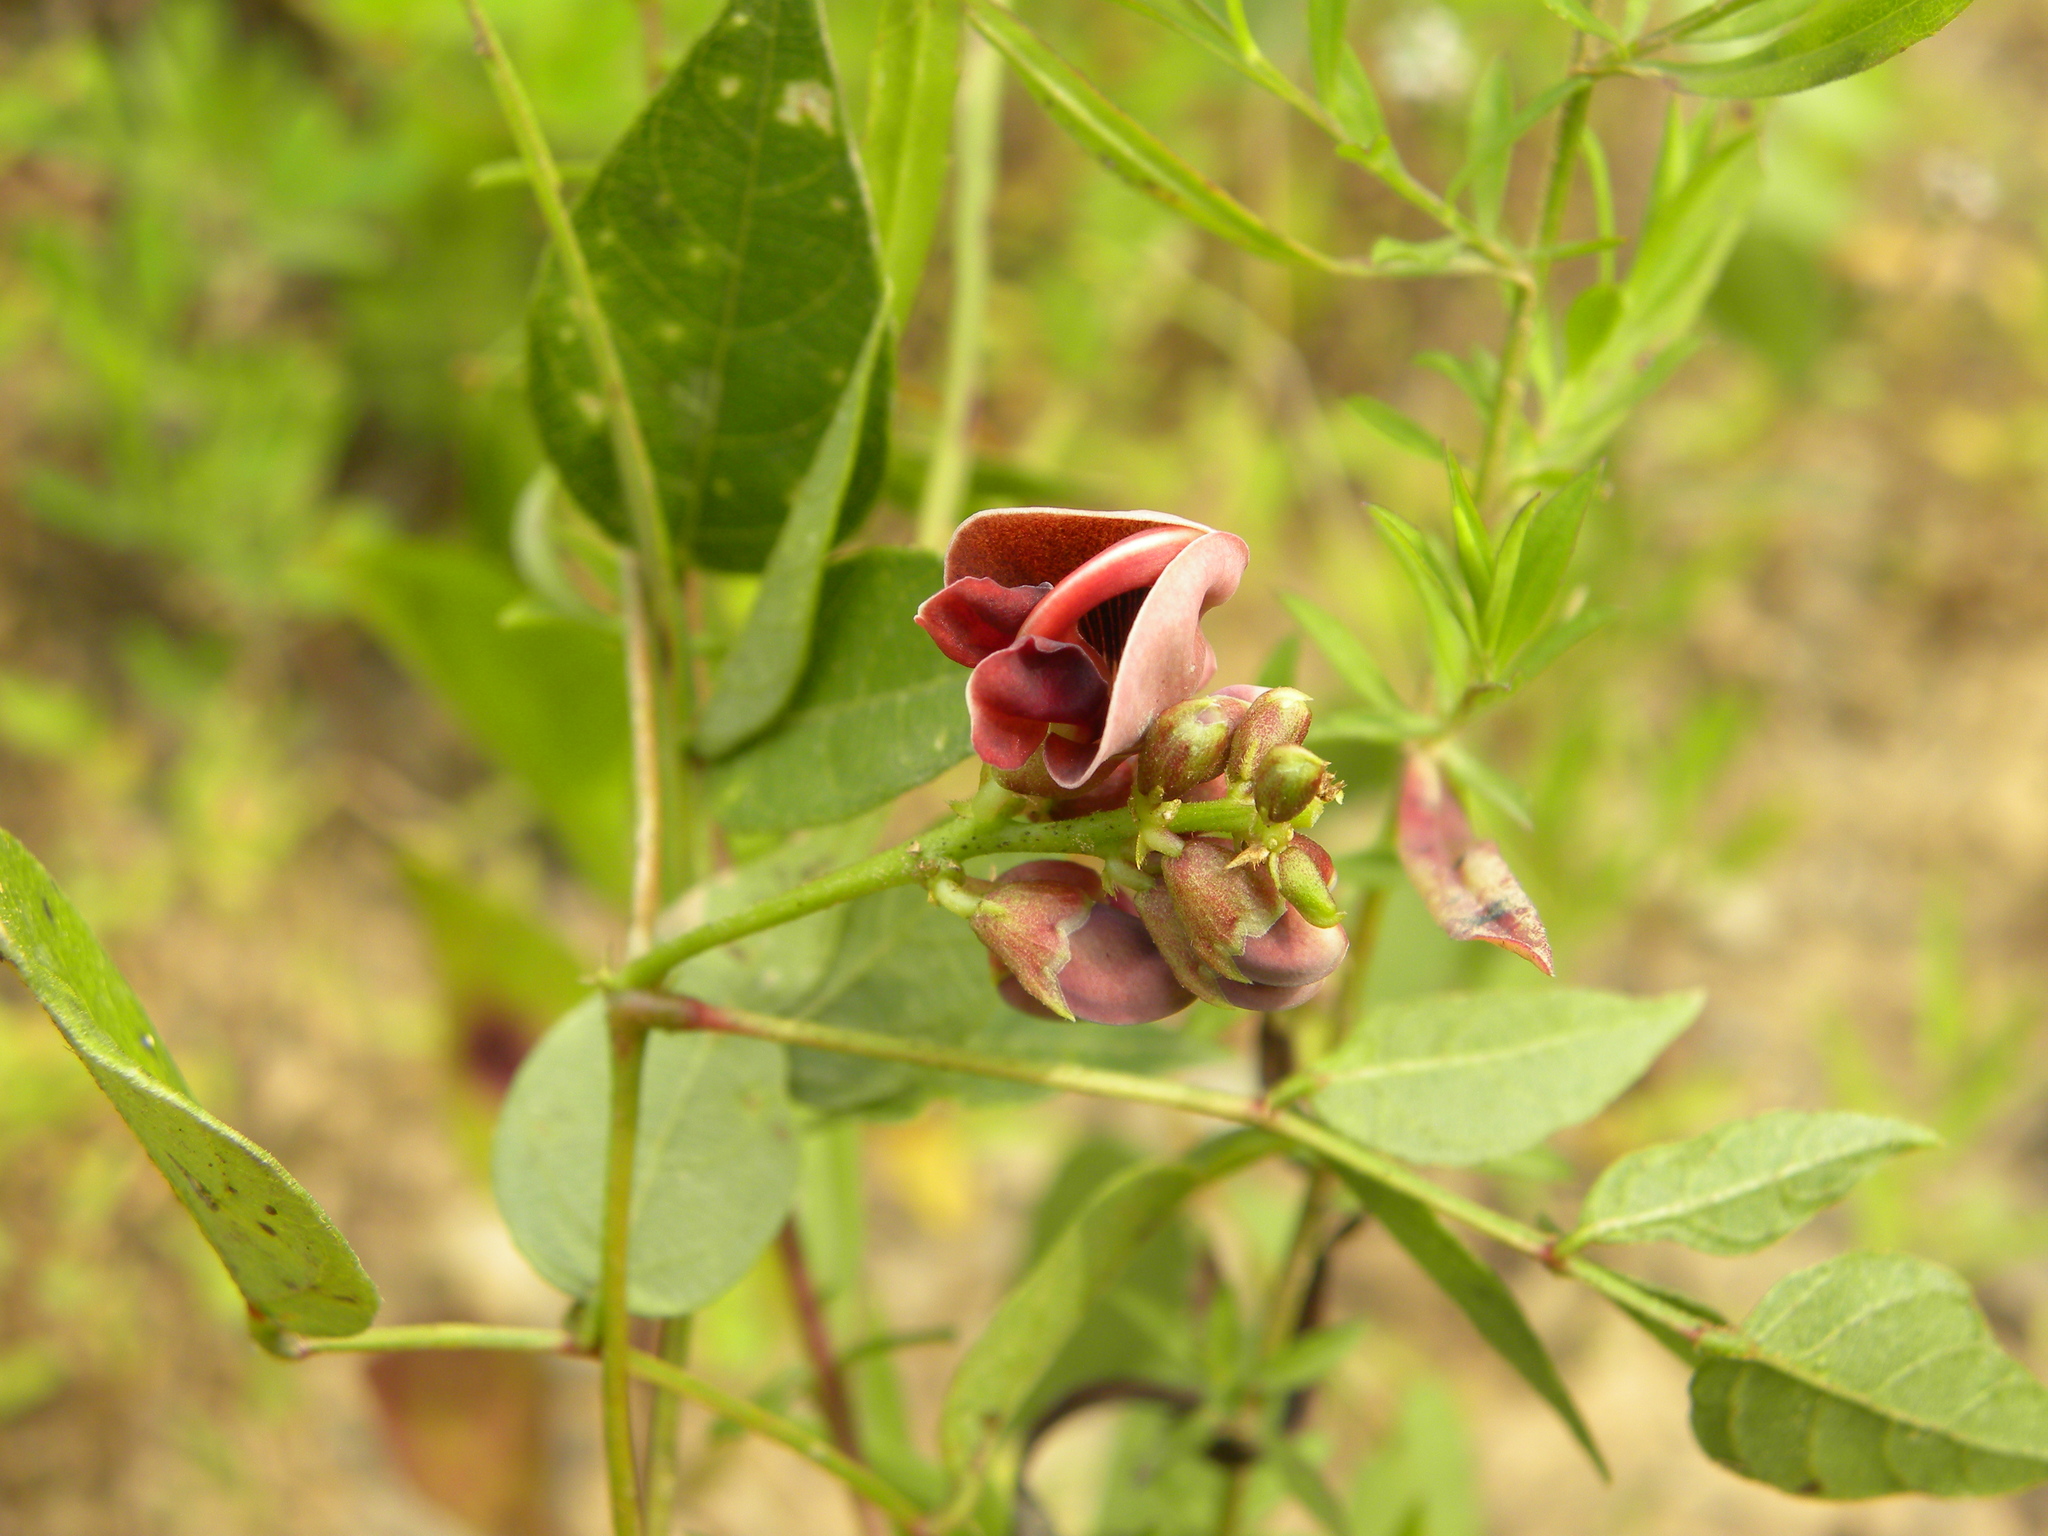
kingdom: Plantae
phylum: Tracheophyta
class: Magnoliopsida
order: Fabales
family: Fabaceae
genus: Apios
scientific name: Apios americana
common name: American potato-bean
